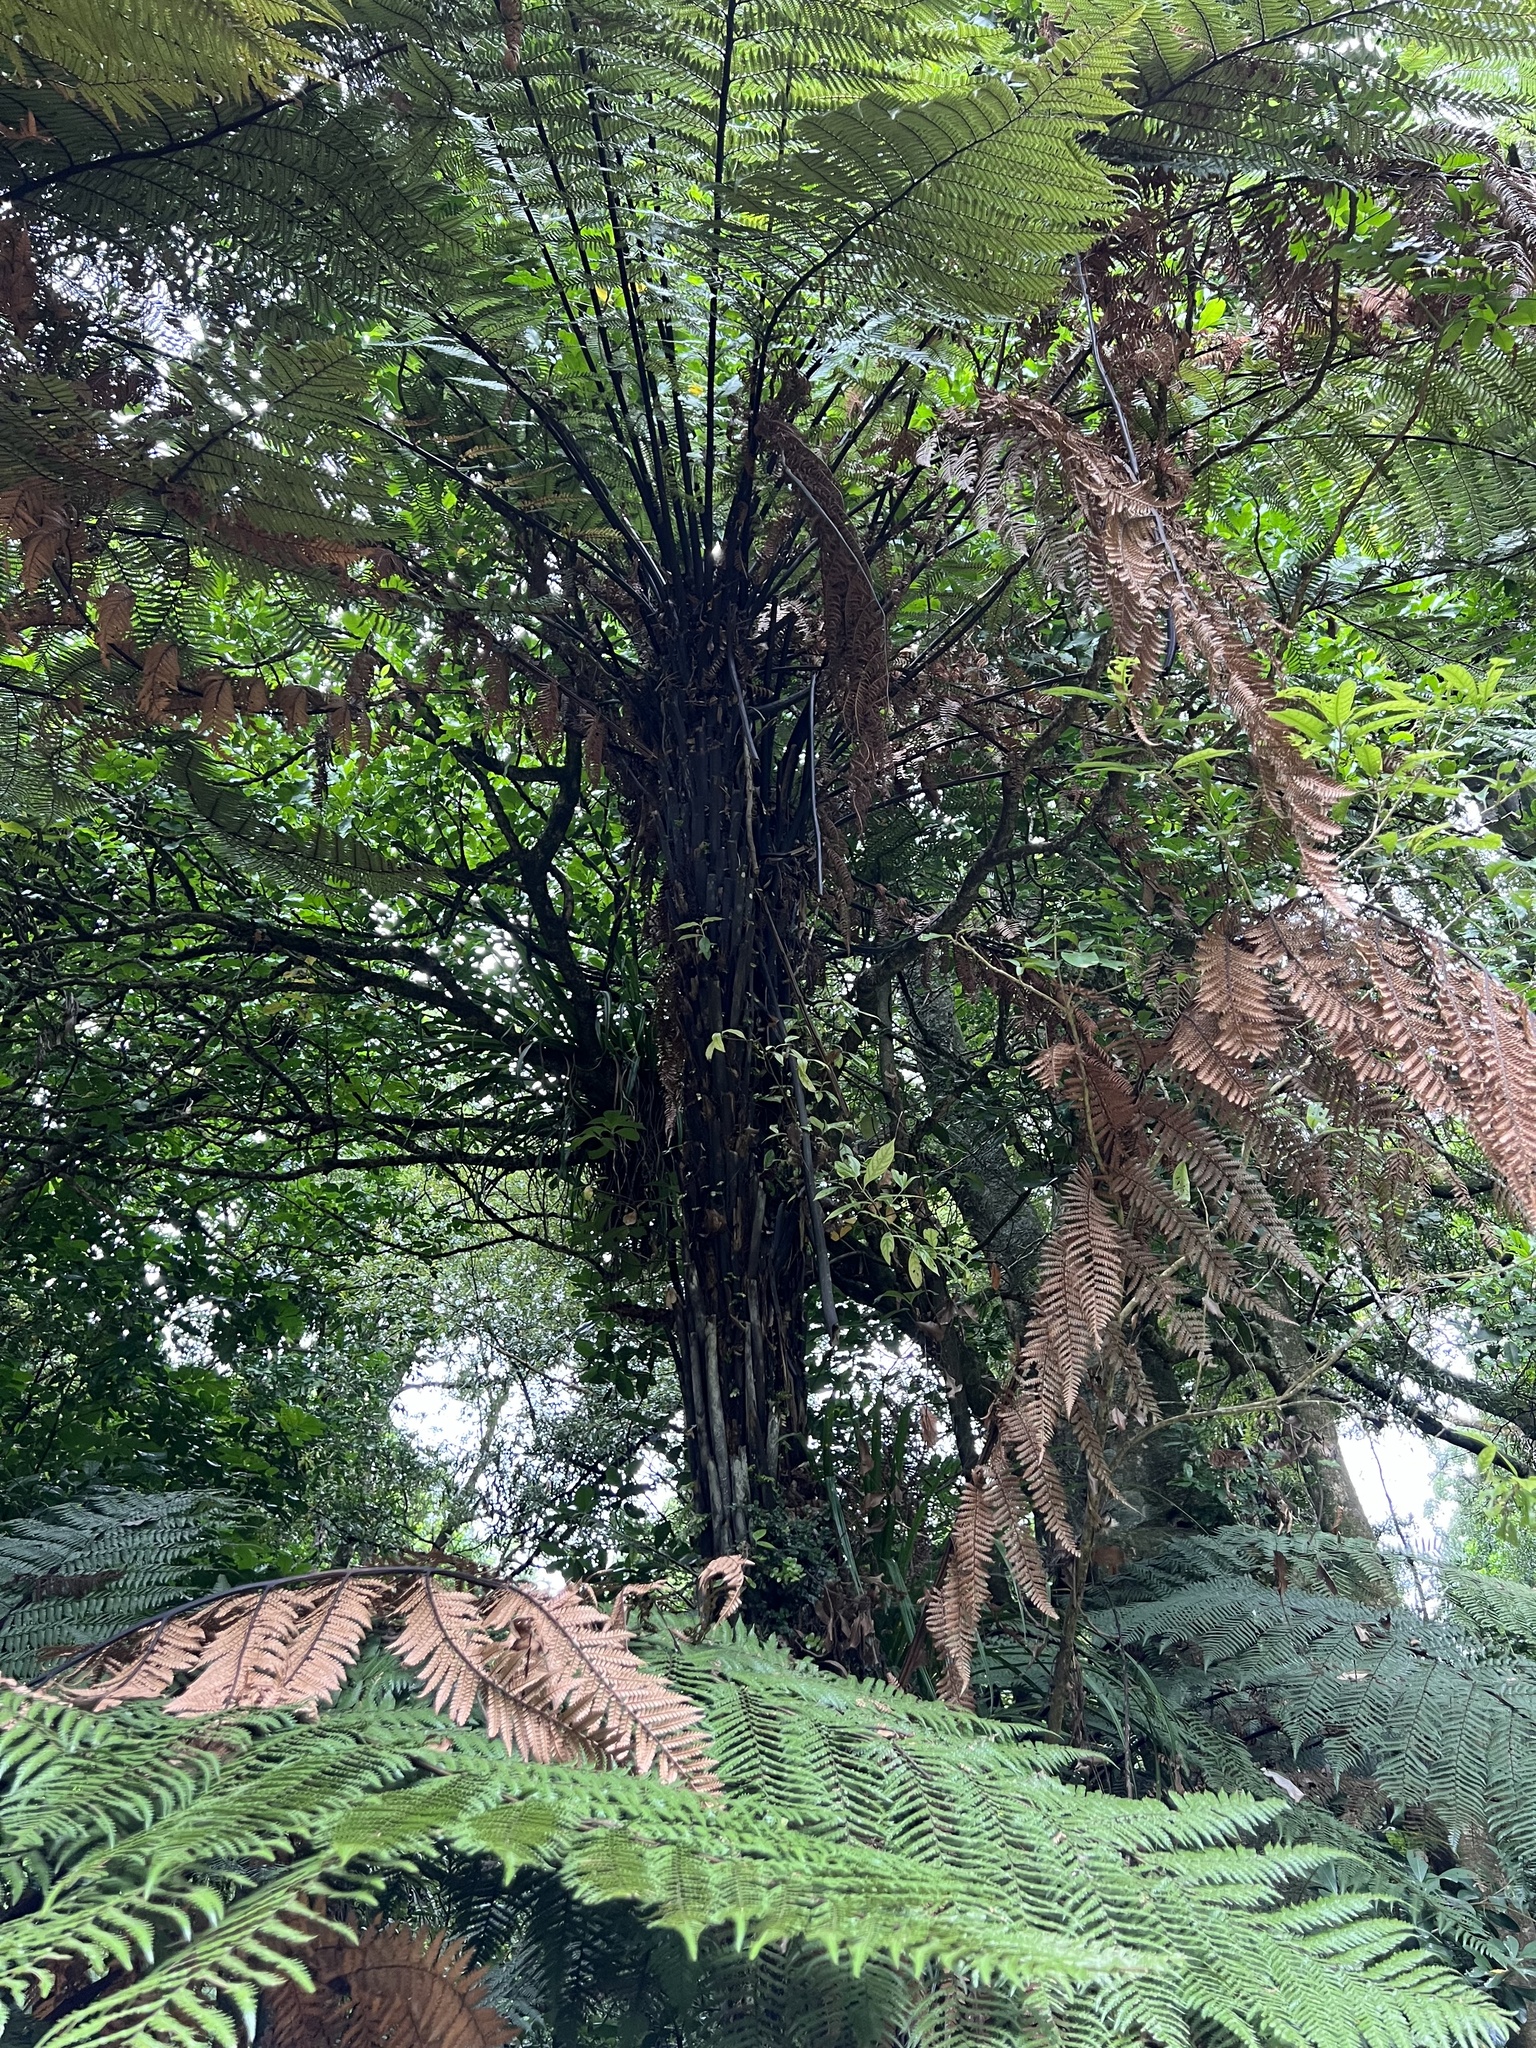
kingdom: Plantae
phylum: Tracheophyta
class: Polypodiopsida
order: Cyatheales
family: Dicksoniaceae
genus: Dicksonia
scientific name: Dicksonia squarrosa
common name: Hard treefern
